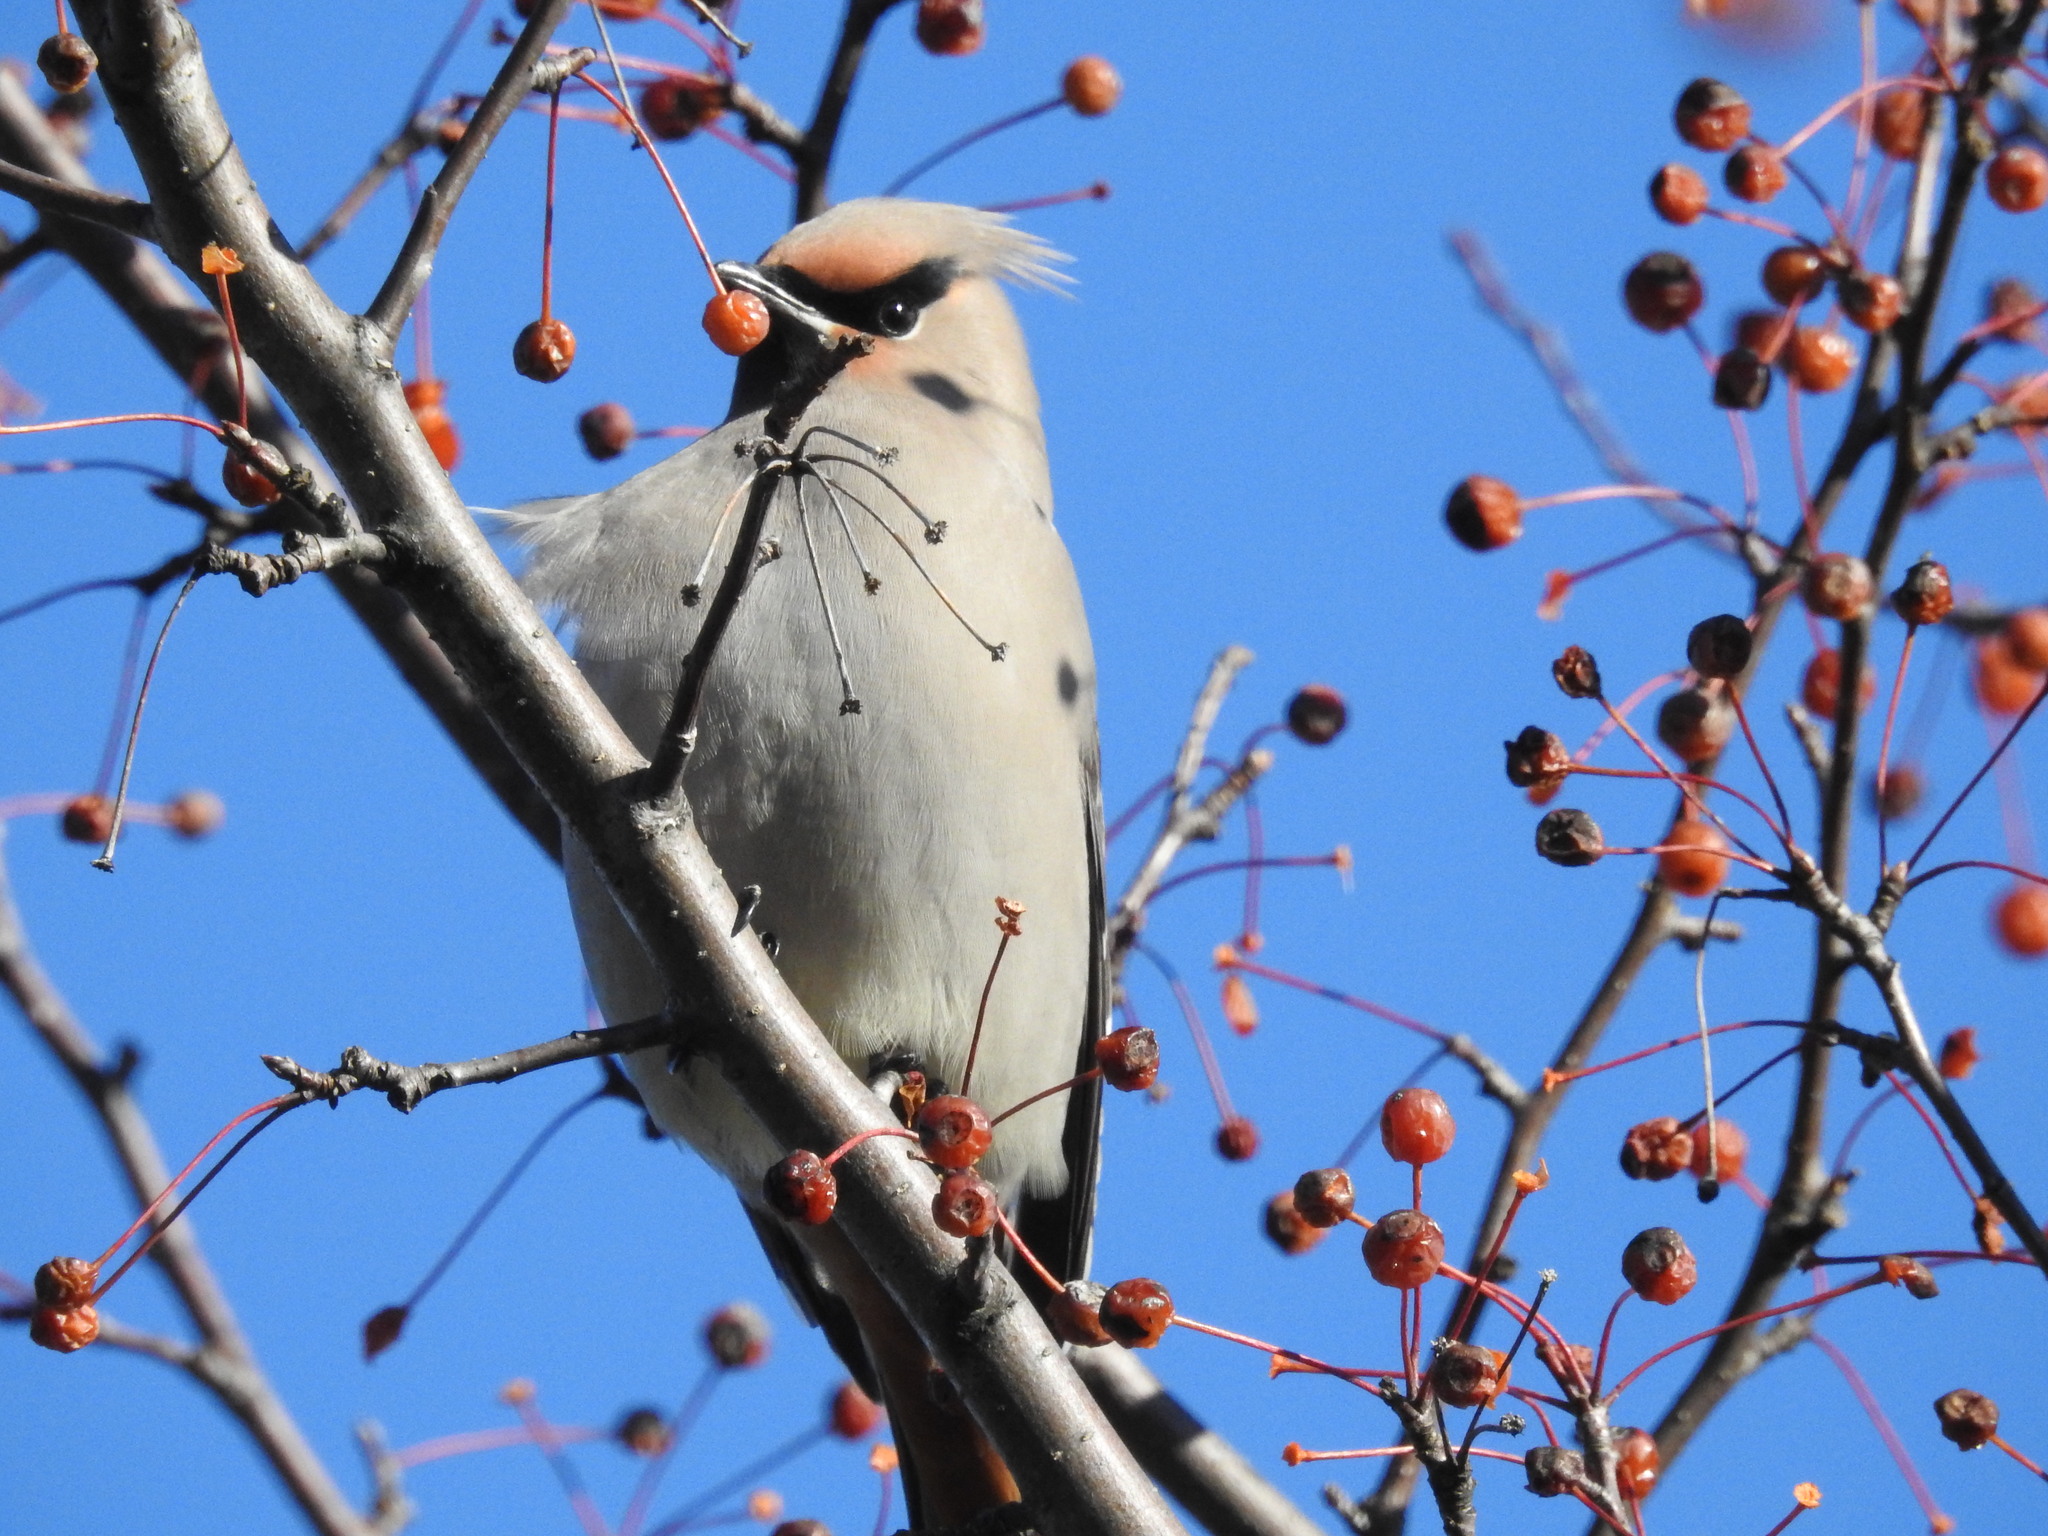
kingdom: Animalia
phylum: Chordata
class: Aves
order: Passeriformes
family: Bombycillidae
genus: Bombycilla
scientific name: Bombycilla garrulus
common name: Bohemian waxwing
